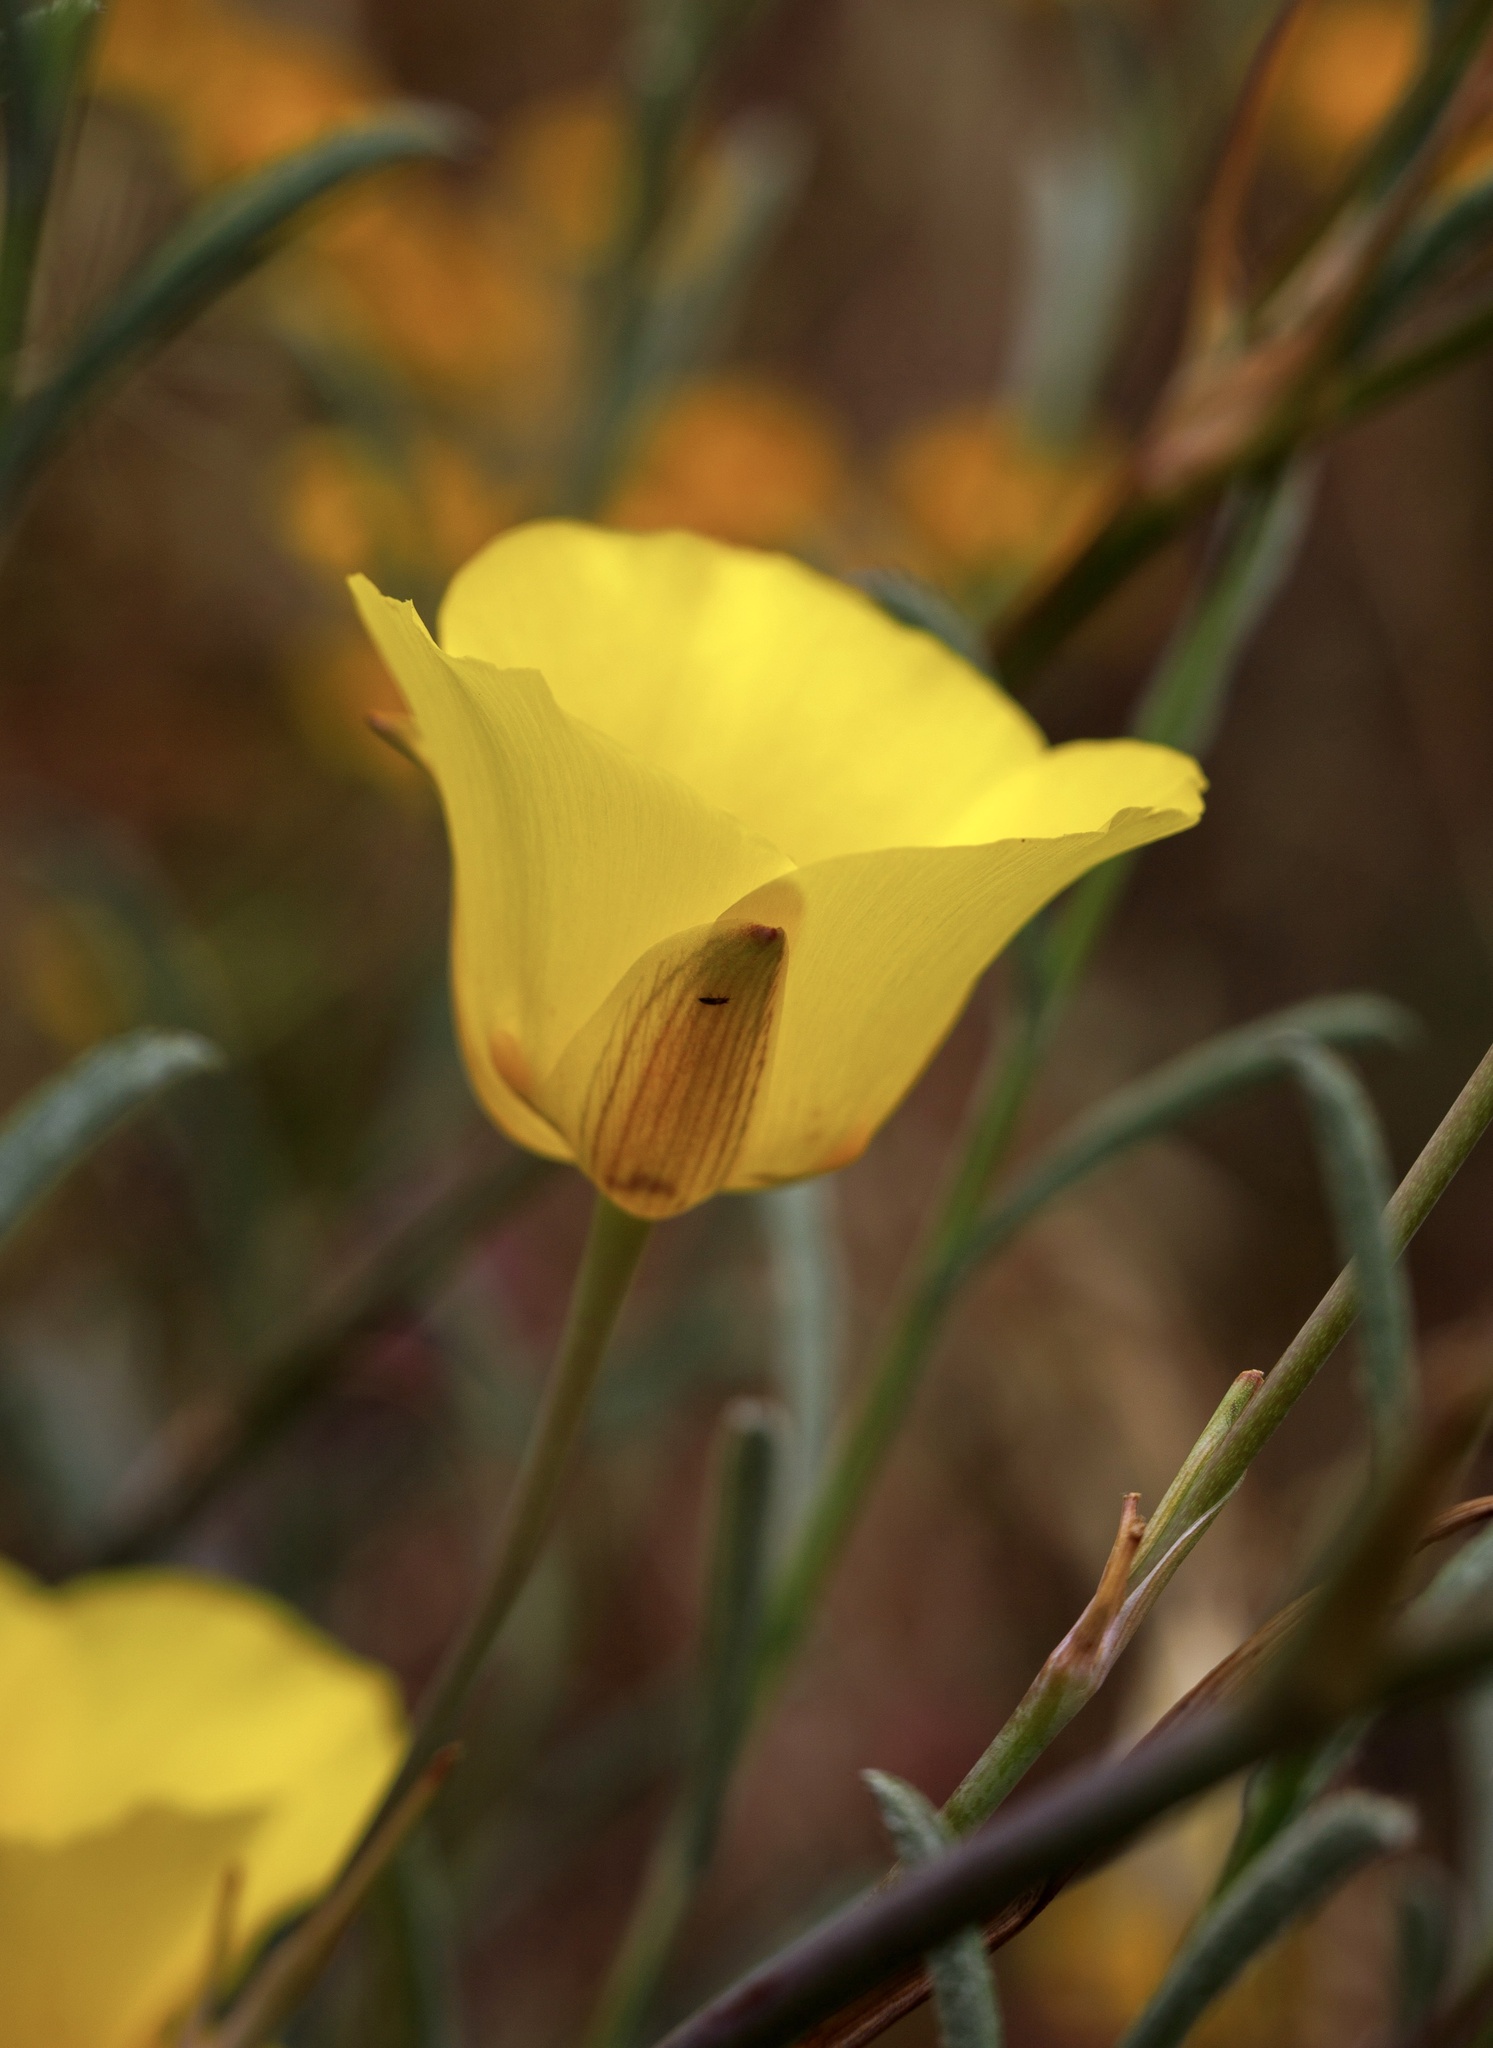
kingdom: Plantae
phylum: Tracheophyta
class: Liliopsida
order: Liliales
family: Liliaceae
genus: Calochortus
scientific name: Calochortus clavatus
